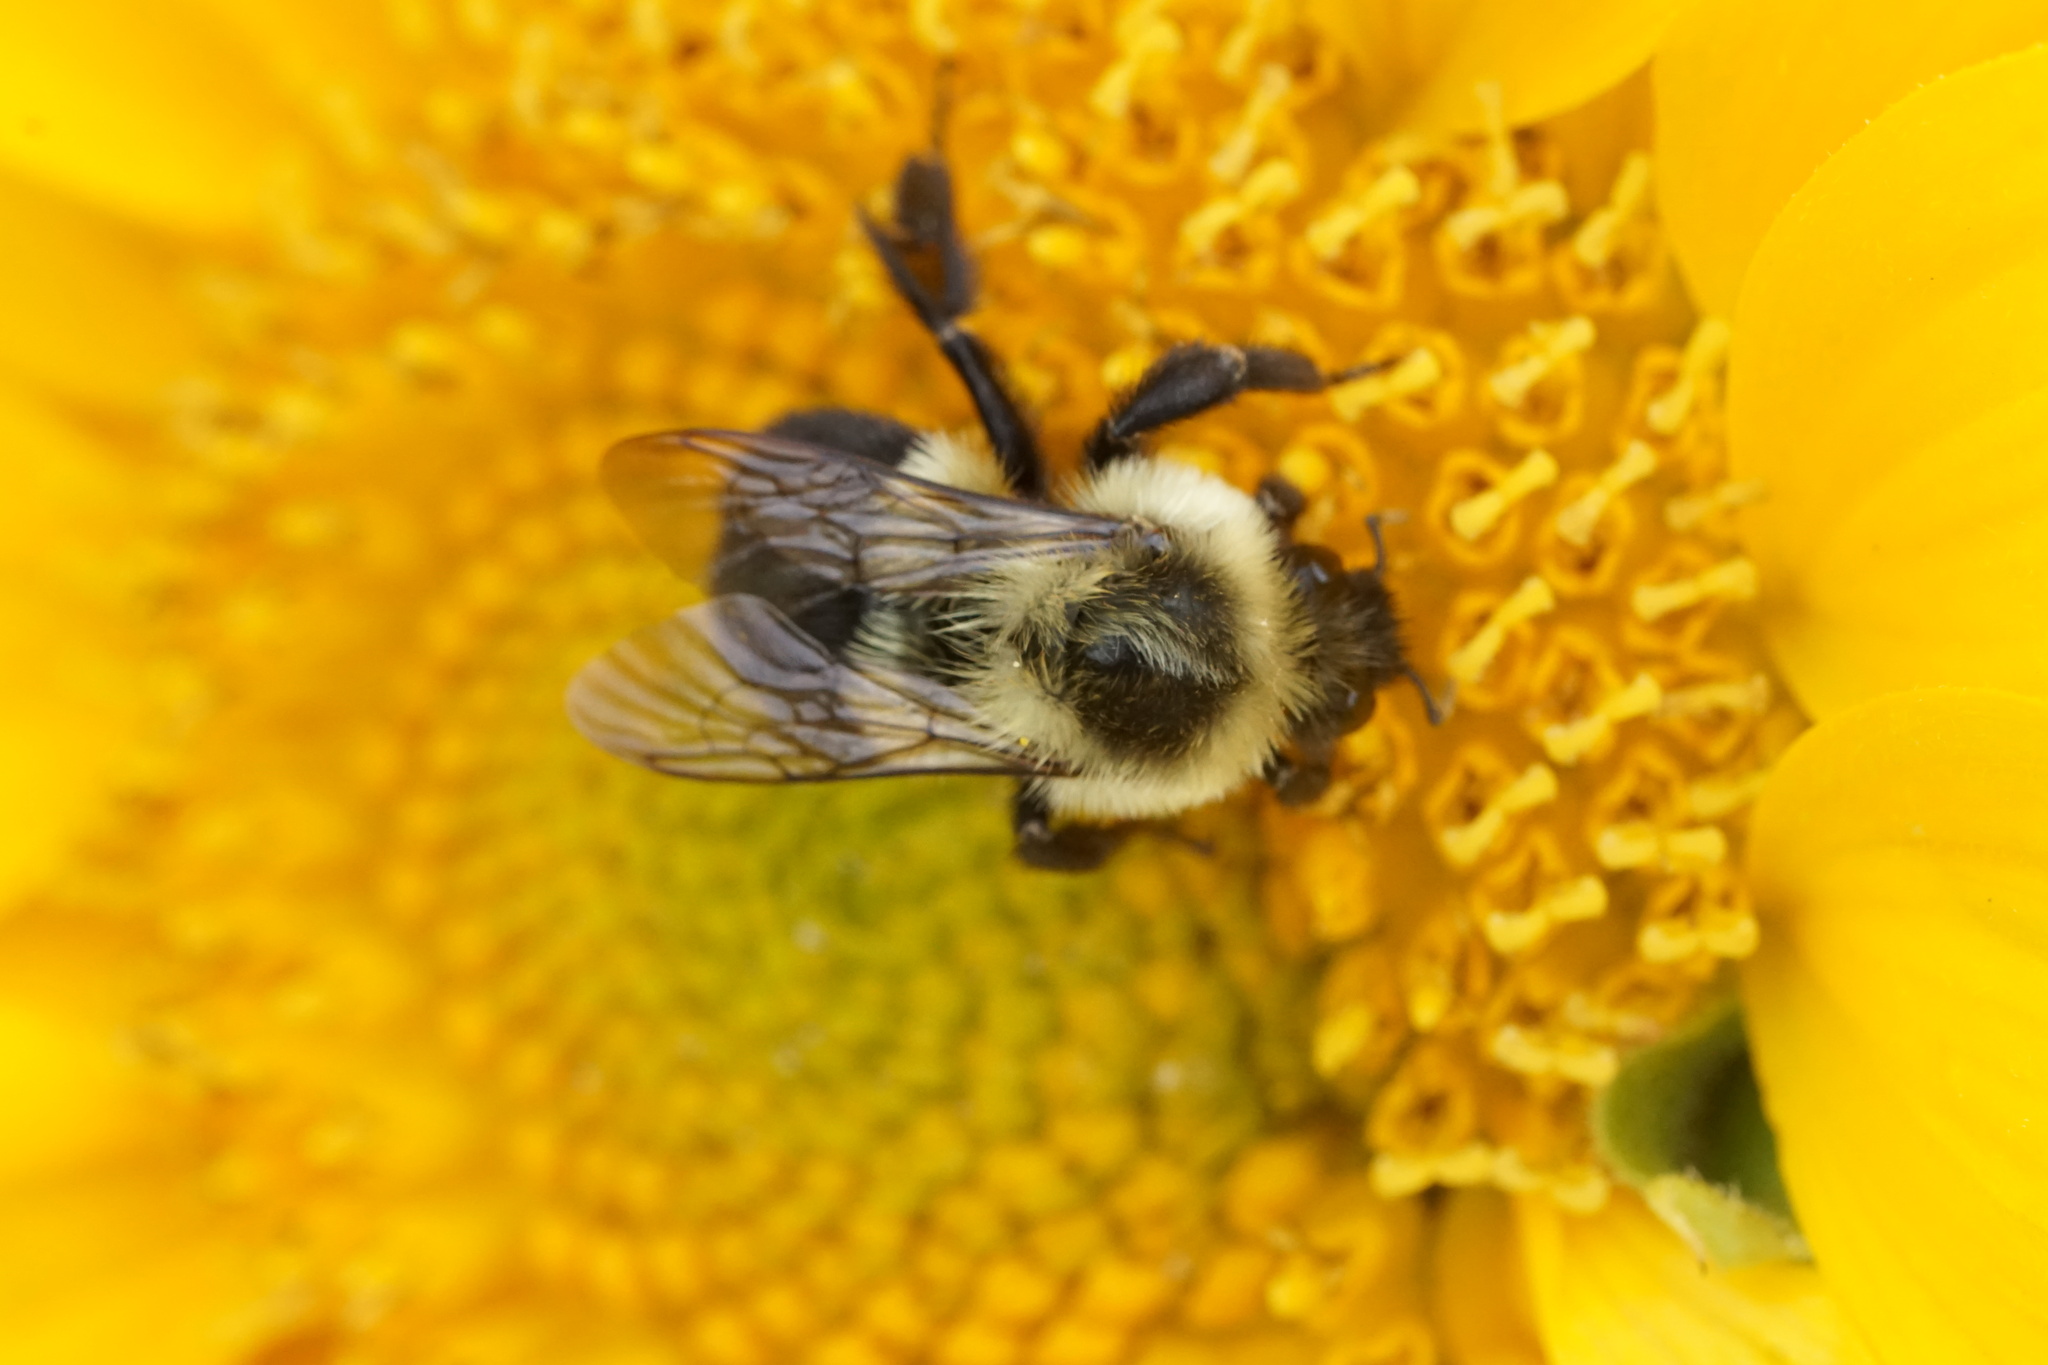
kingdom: Animalia
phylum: Arthropoda
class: Insecta
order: Hymenoptera
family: Apidae
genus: Bombus
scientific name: Bombus impatiens
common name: Common eastern bumble bee
